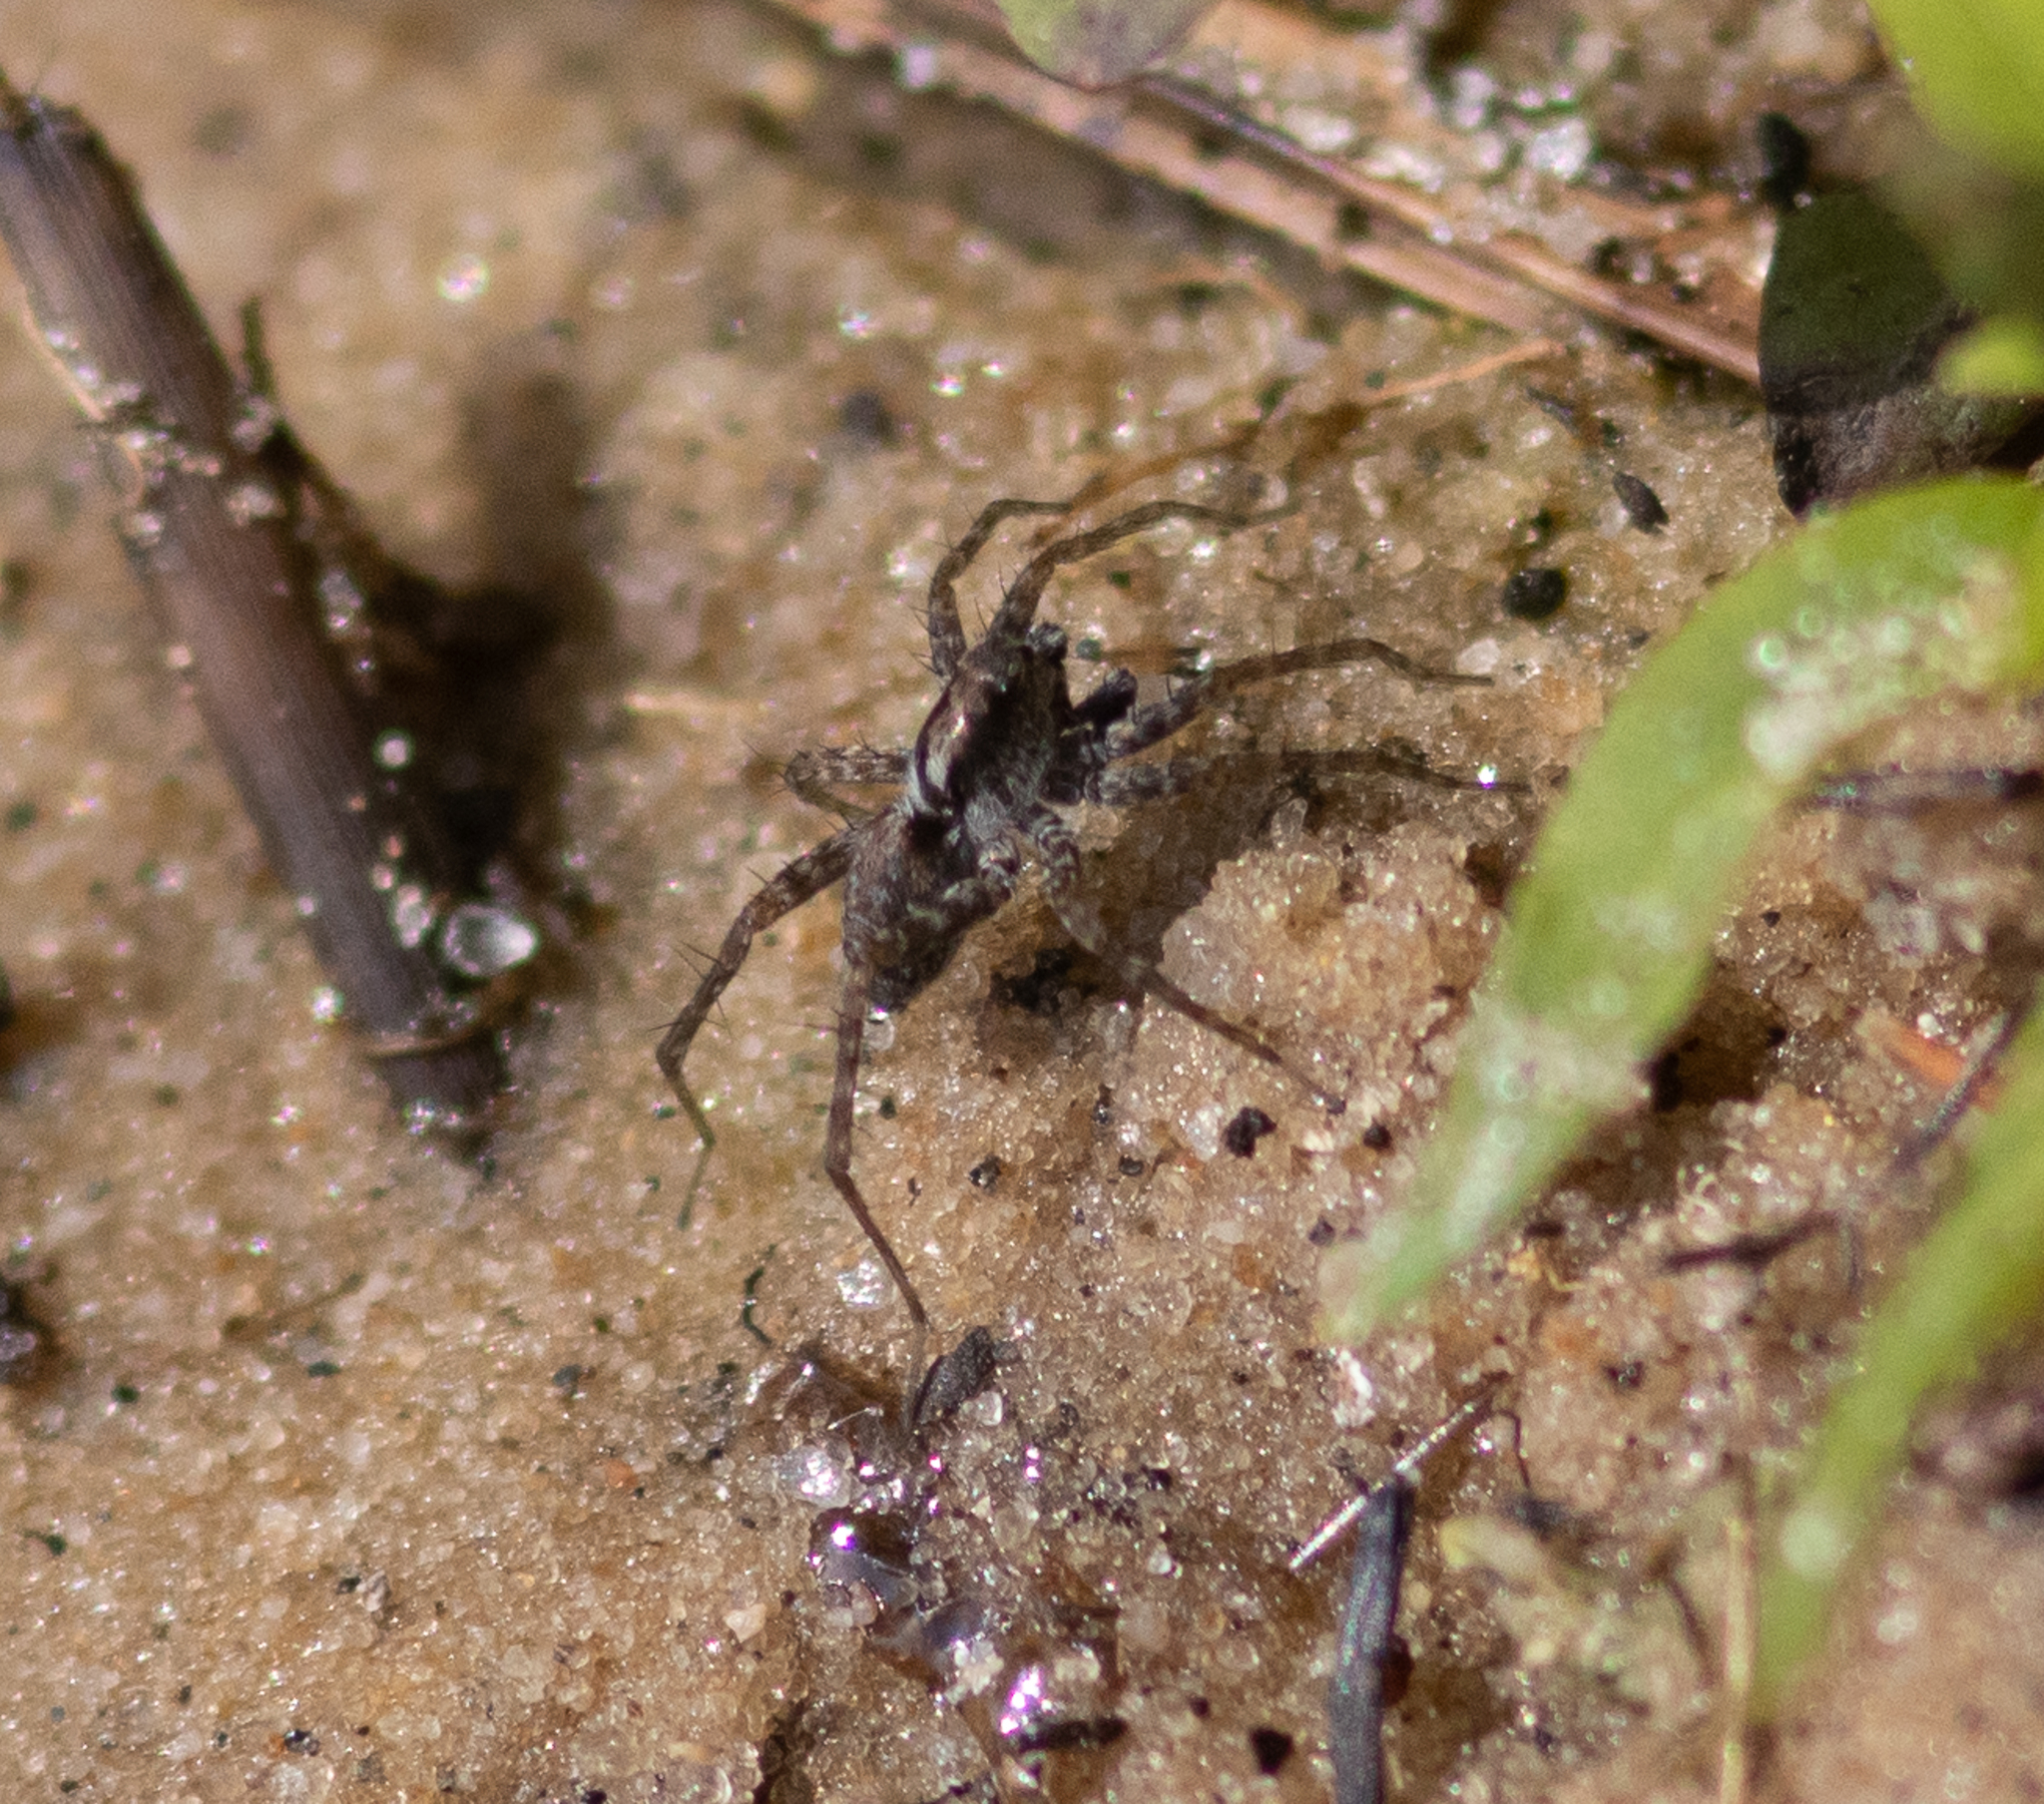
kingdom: Animalia
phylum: Arthropoda
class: Arachnida
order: Araneae
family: Lycosidae
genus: Pardosa
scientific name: Pardosa
